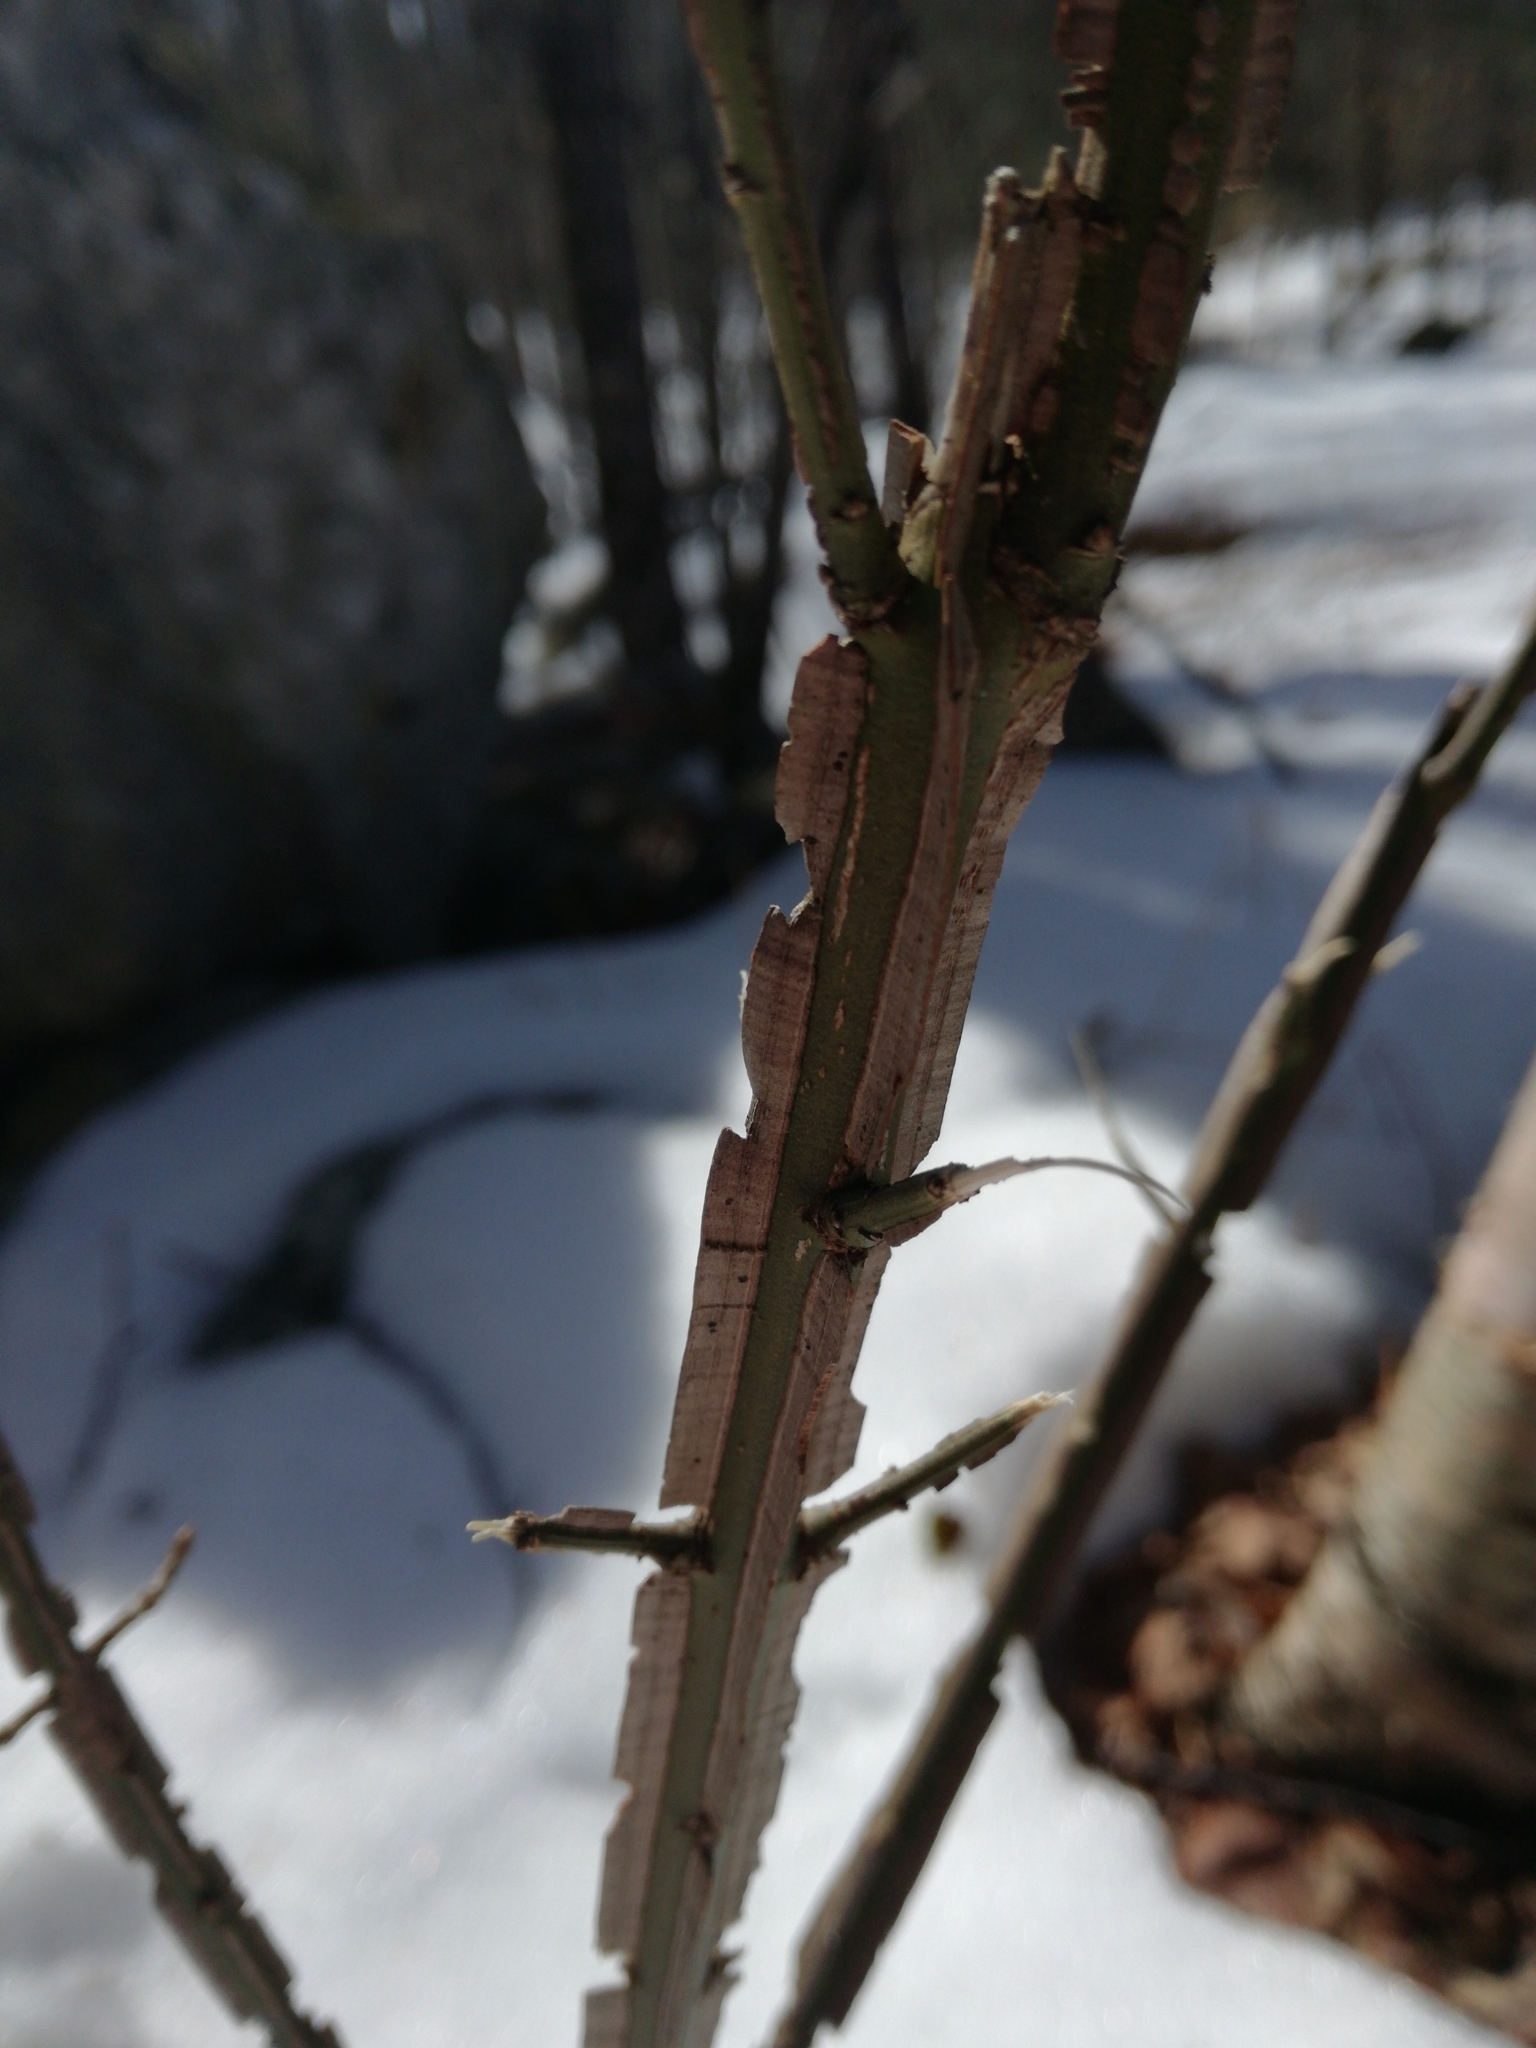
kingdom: Plantae
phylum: Tracheophyta
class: Magnoliopsida
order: Celastrales
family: Celastraceae
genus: Euonymus
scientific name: Euonymus alatus
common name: Winged euonymus
